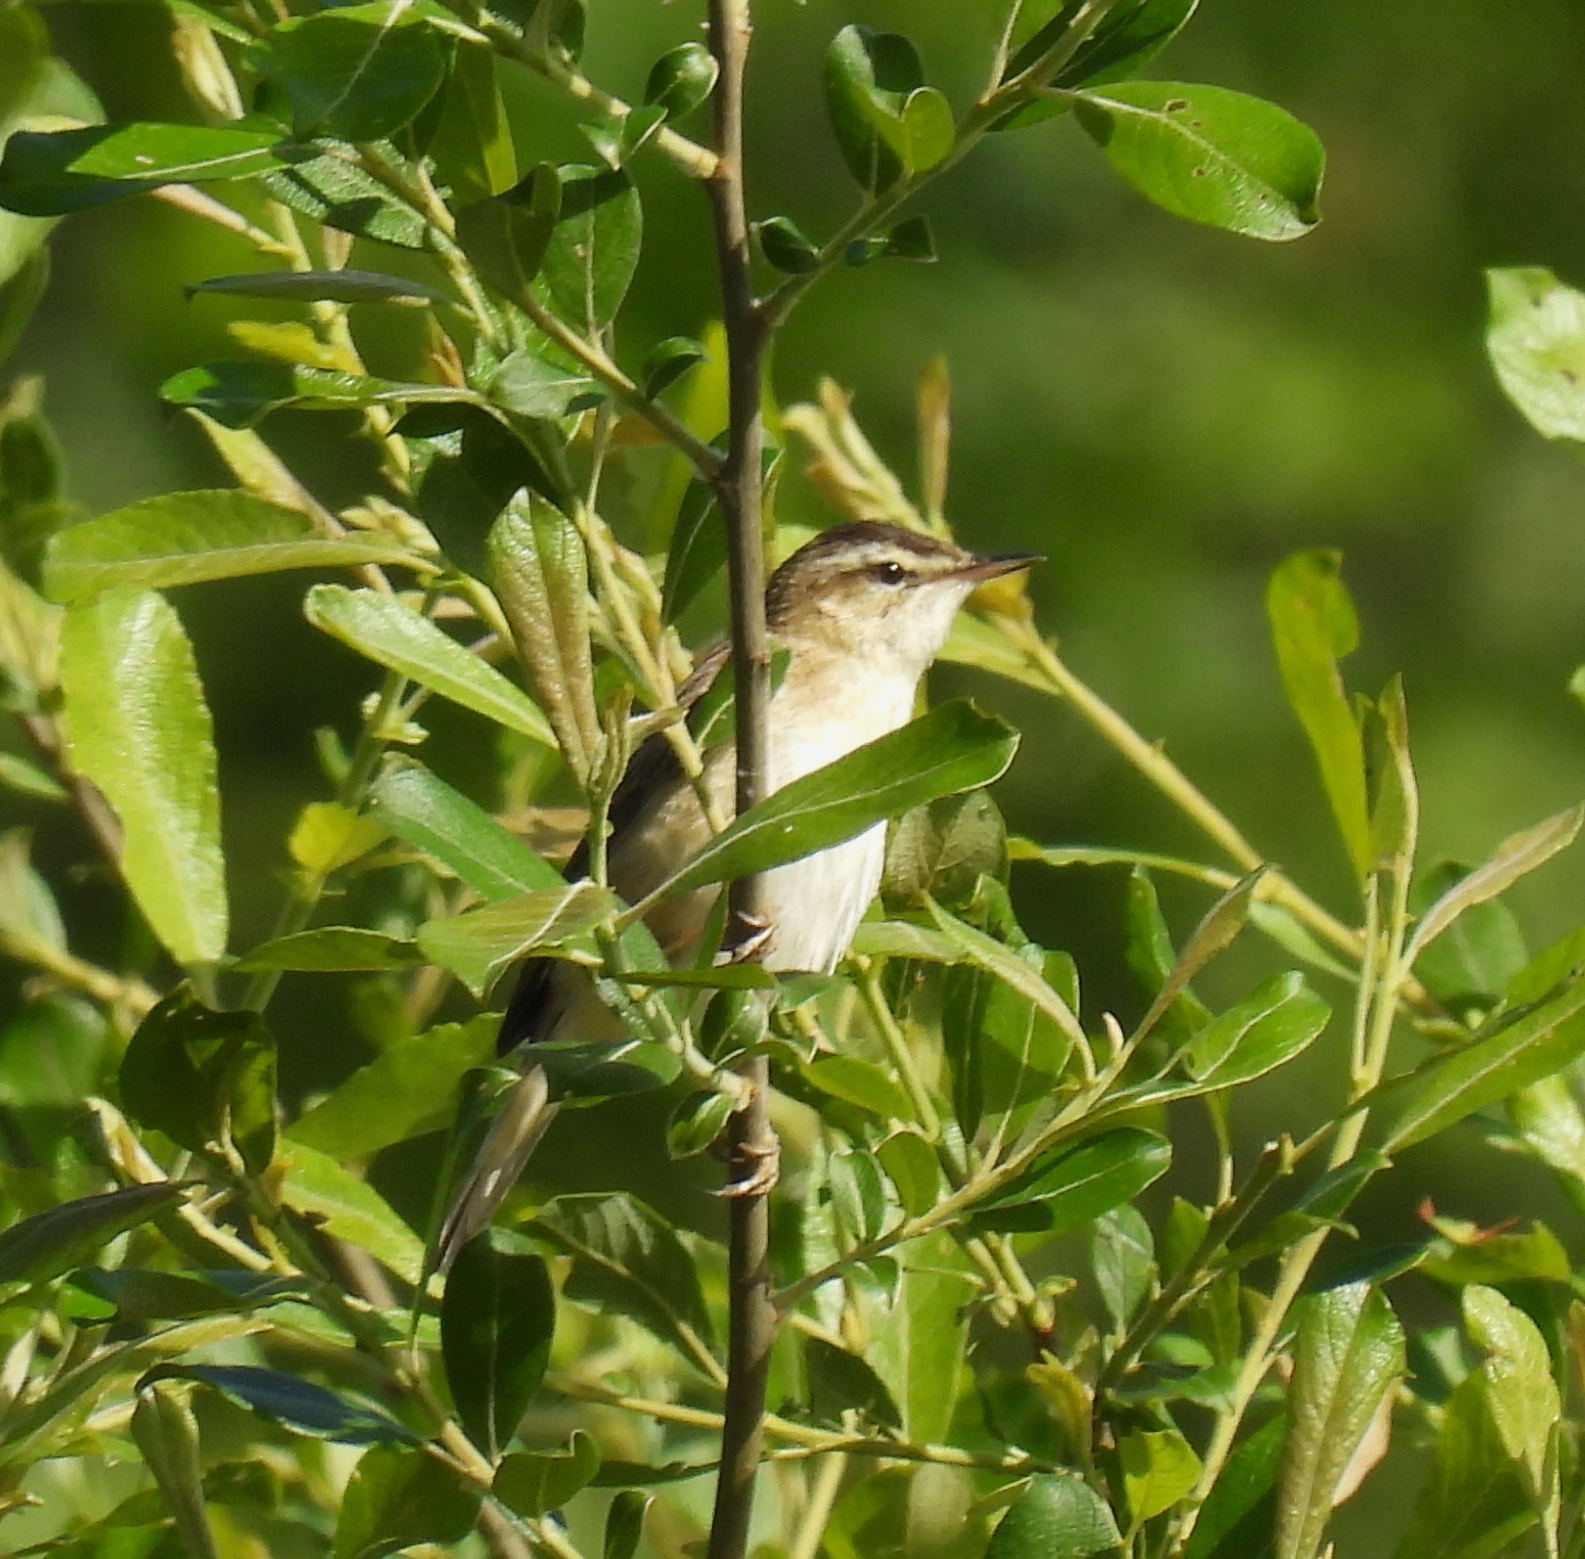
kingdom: Animalia
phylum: Chordata
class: Aves
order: Passeriformes
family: Acrocephalidae
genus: Acrocephalus
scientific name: Acrocephalus schoenobaenus
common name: Sedge warbler
